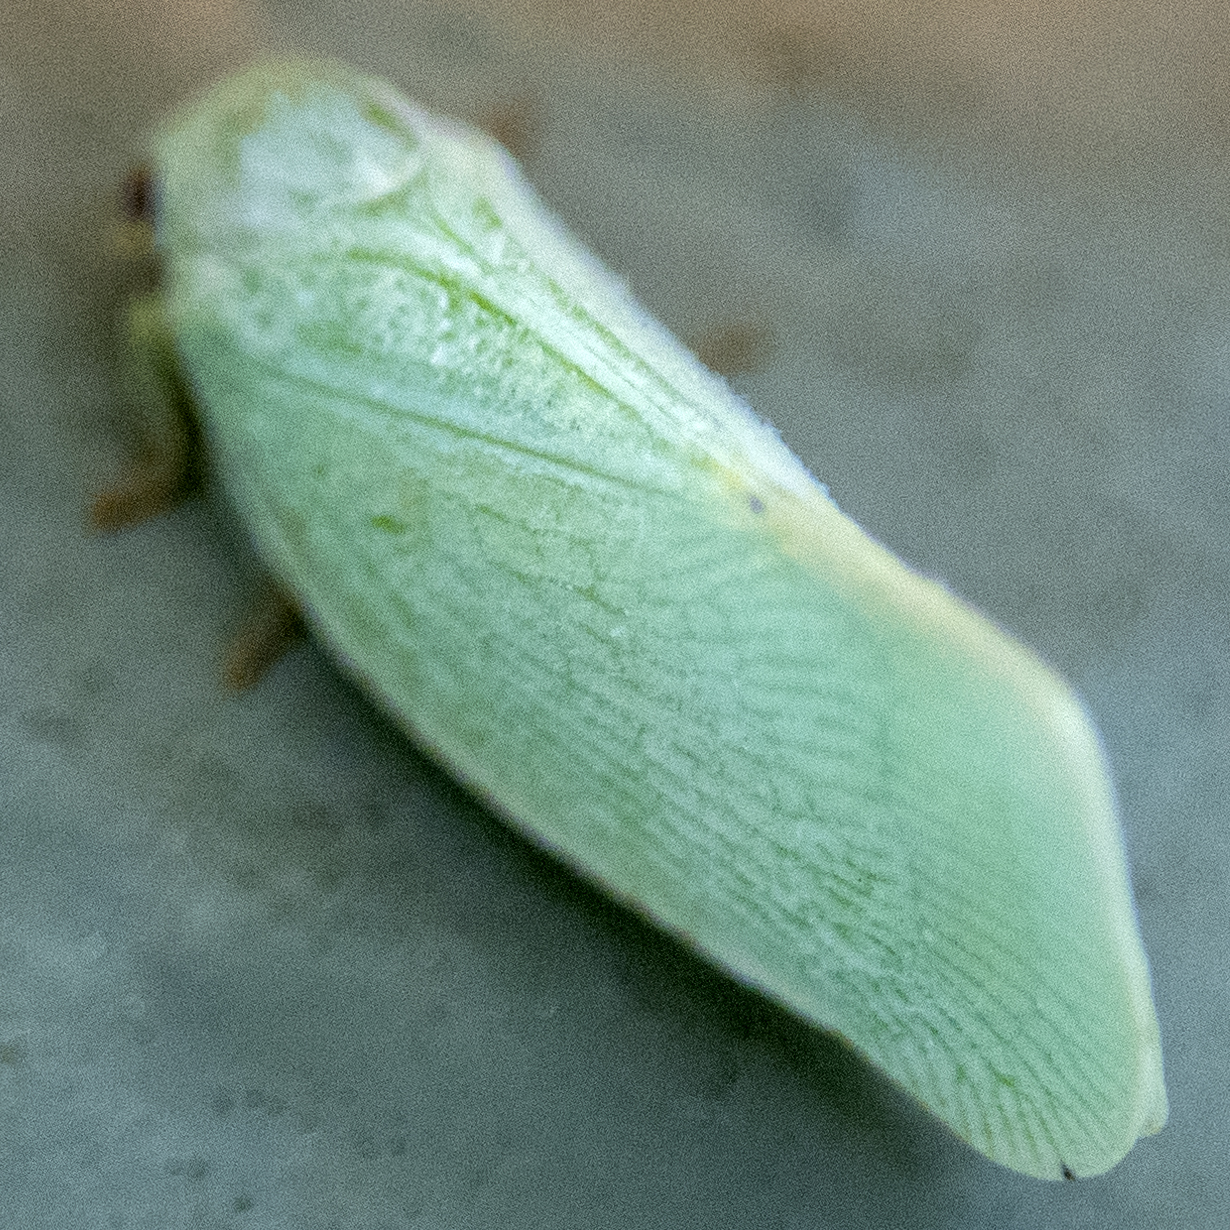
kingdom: Animalia
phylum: Arthropoda
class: Insecta
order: Hemiptera
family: Flatidae
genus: Flatormenis
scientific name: Flatormenis proxima
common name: Northern flatid planthopper
